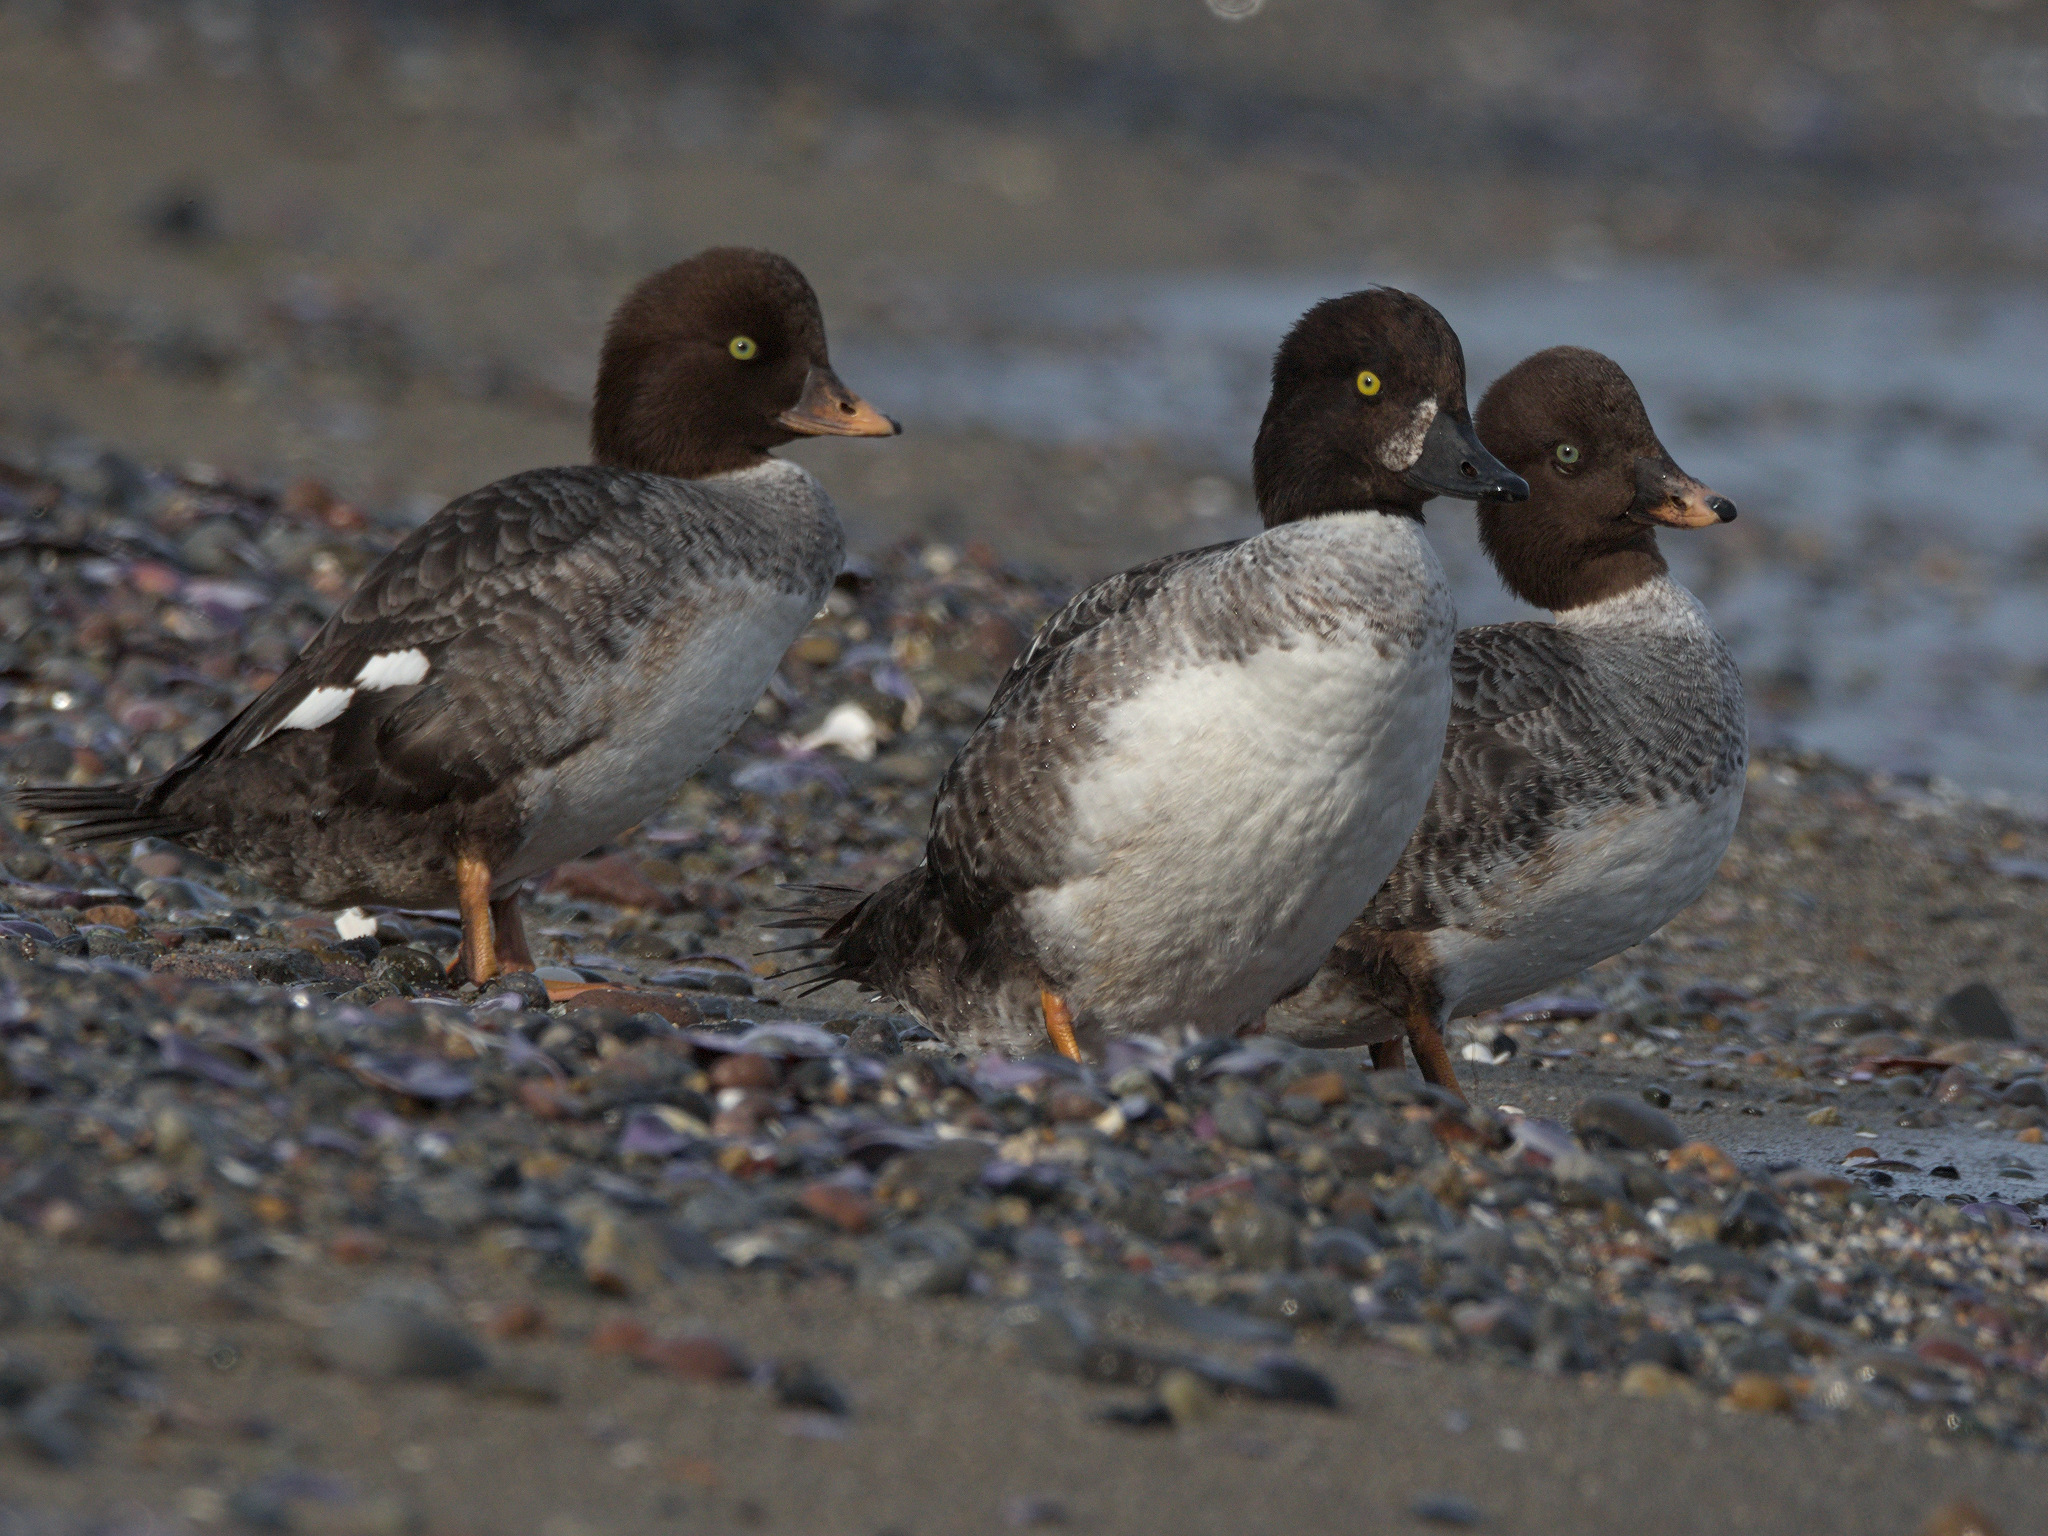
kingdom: Animalia
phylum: Chordata
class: Aves
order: Anseriformes
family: Anatidae
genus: Bucephala
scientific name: Bucephala islandica
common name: Barrow's goldeneye
